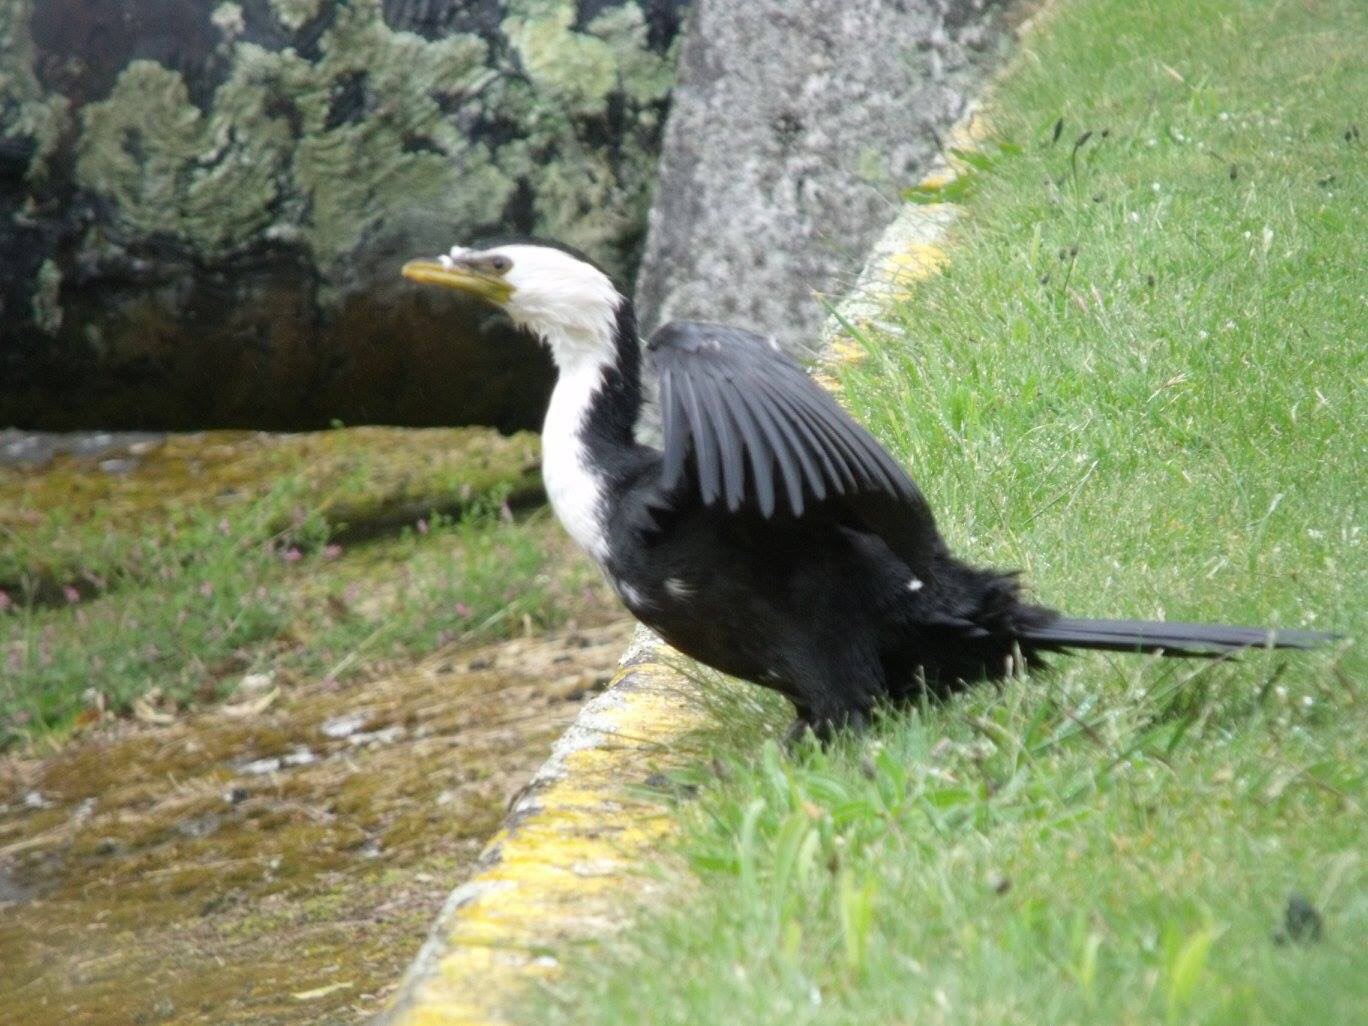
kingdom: Animalia
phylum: Chordata
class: Aves
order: Suliformes
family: Phalacrocoracidae
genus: Microcarbo
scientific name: Microcarbo melanoleucos
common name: Little pied cormorant
